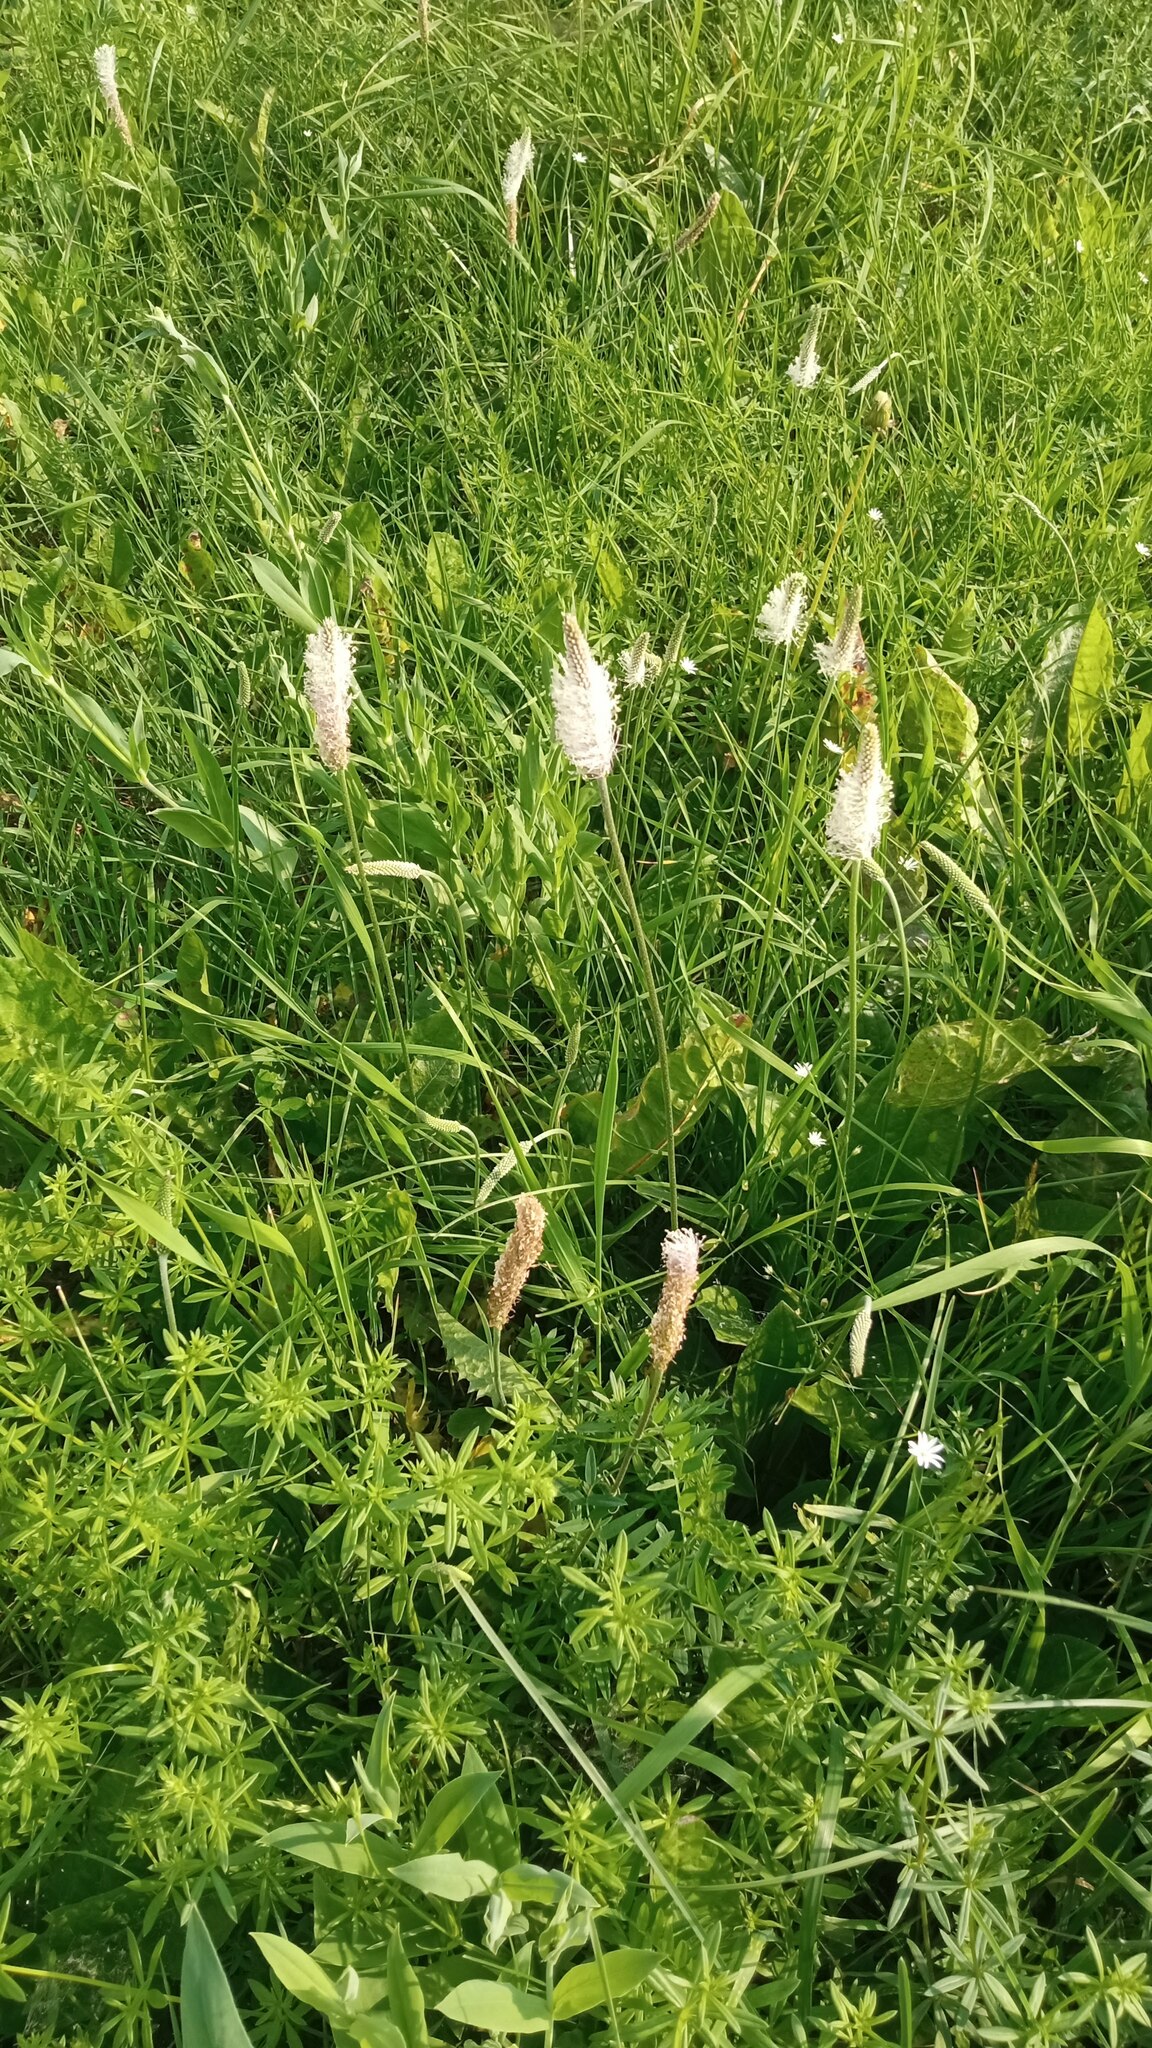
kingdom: Plantae
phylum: Tracheophyta
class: Magnoliopsida
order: Lamiales
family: Plantaginaceae
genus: Plantago
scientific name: Plantago media
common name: Hoary plantain
